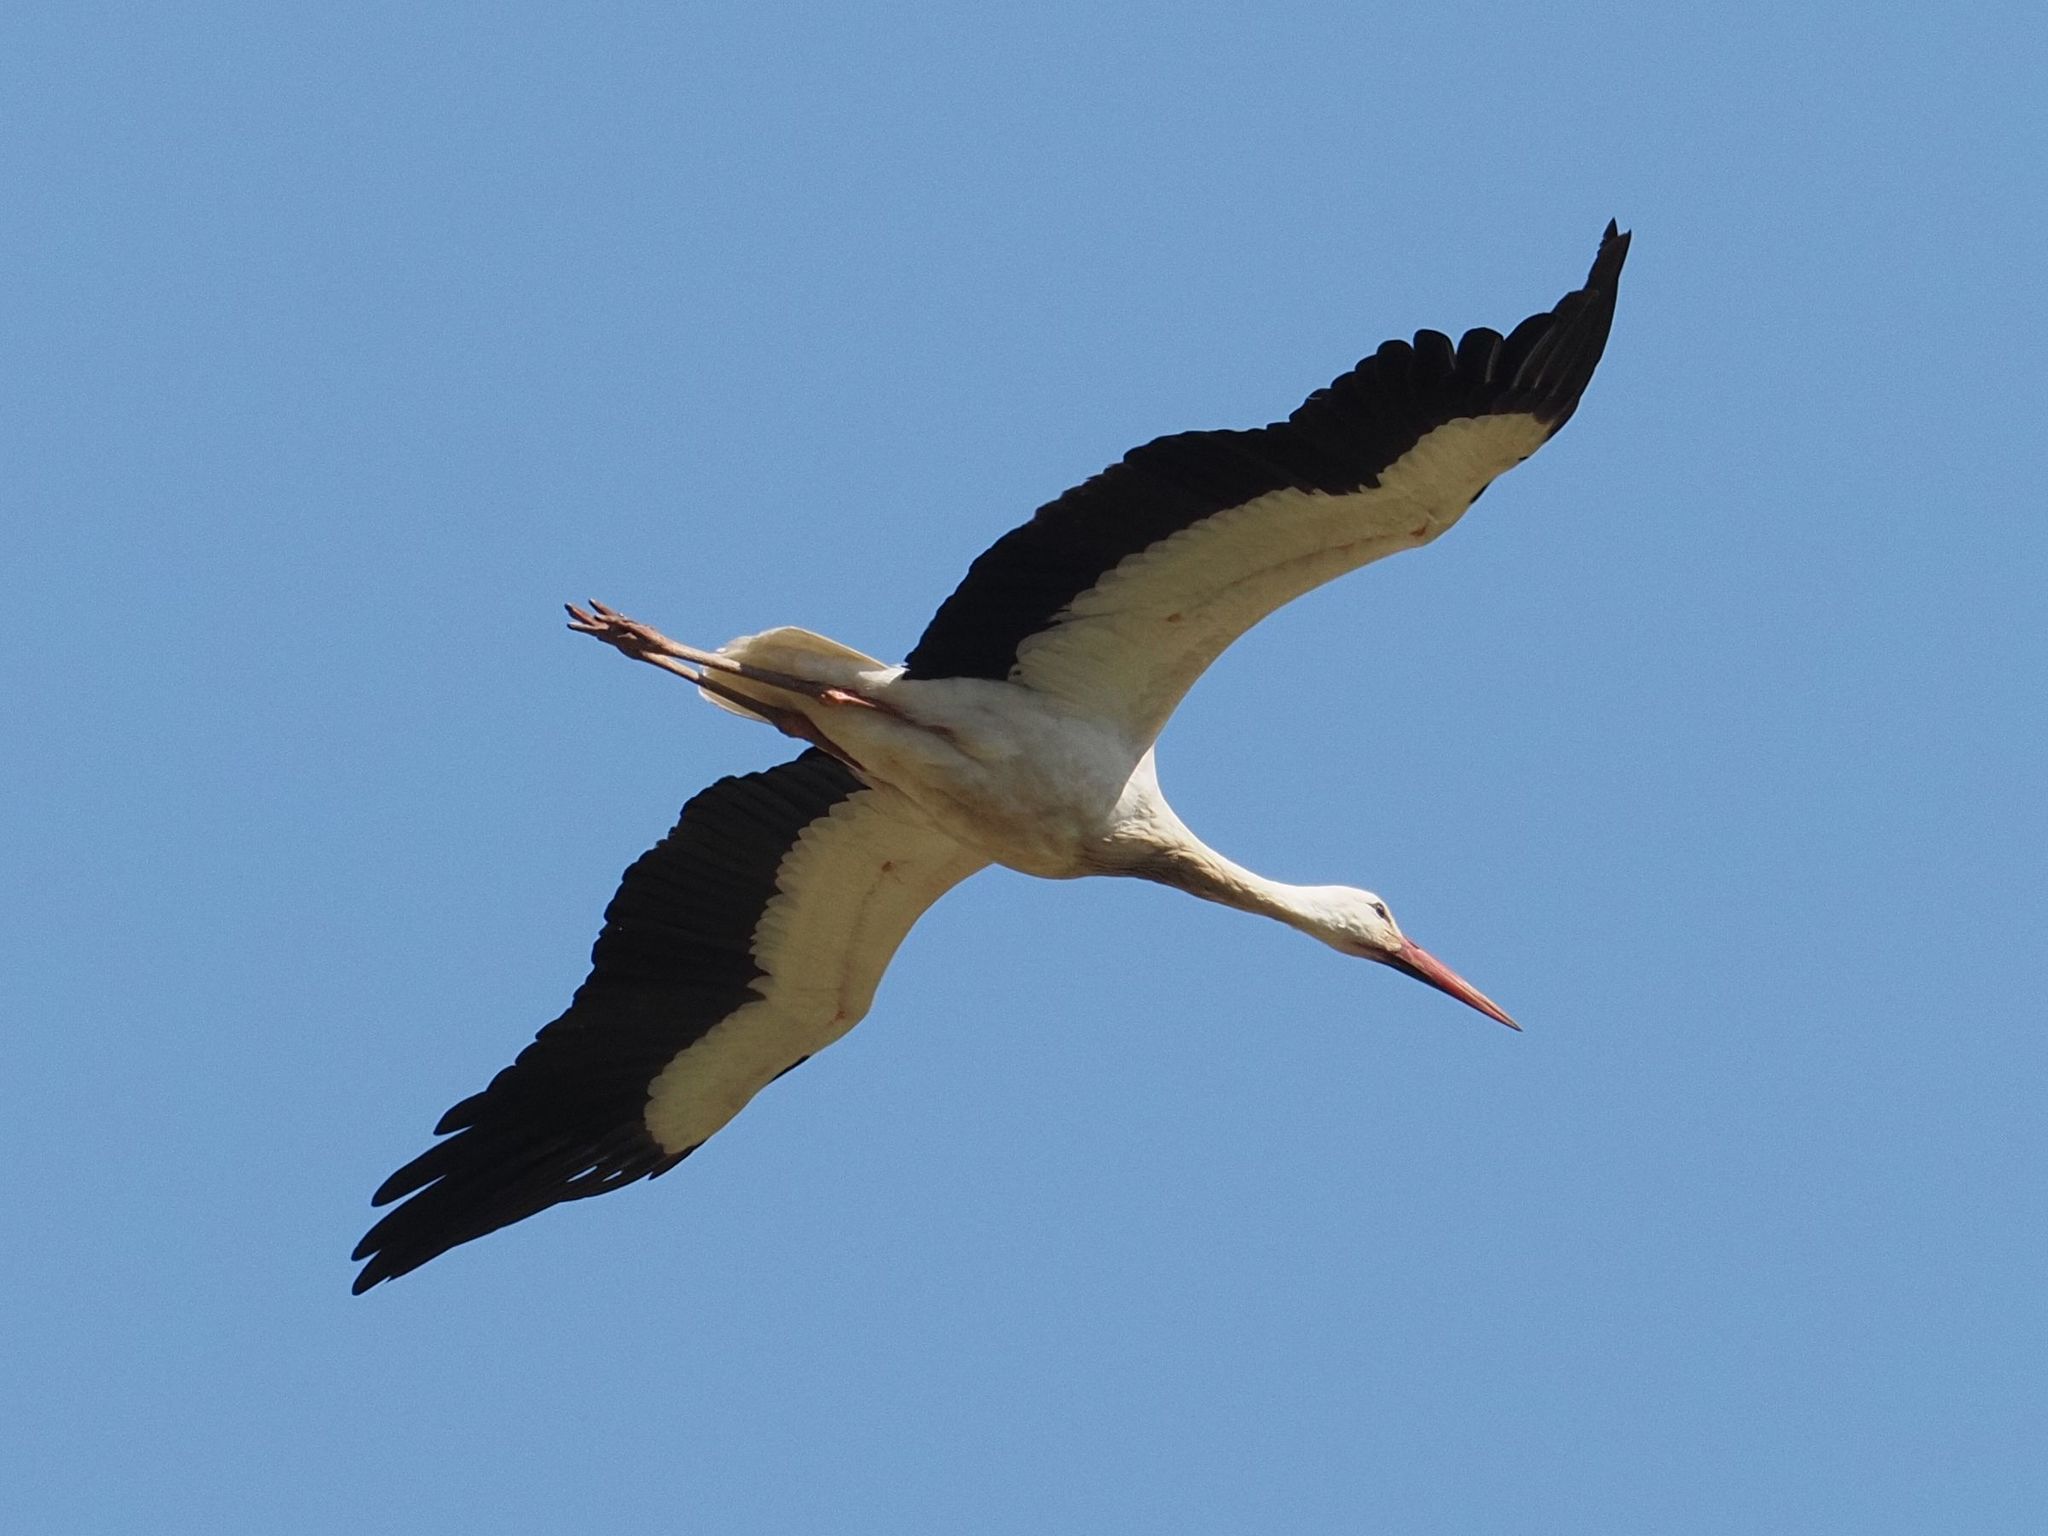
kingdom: Animalia
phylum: Chordata
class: Aves
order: Ciconiiformes
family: Ciconiidae
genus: Ciconia
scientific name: Ciconia ciconia
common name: White stork
